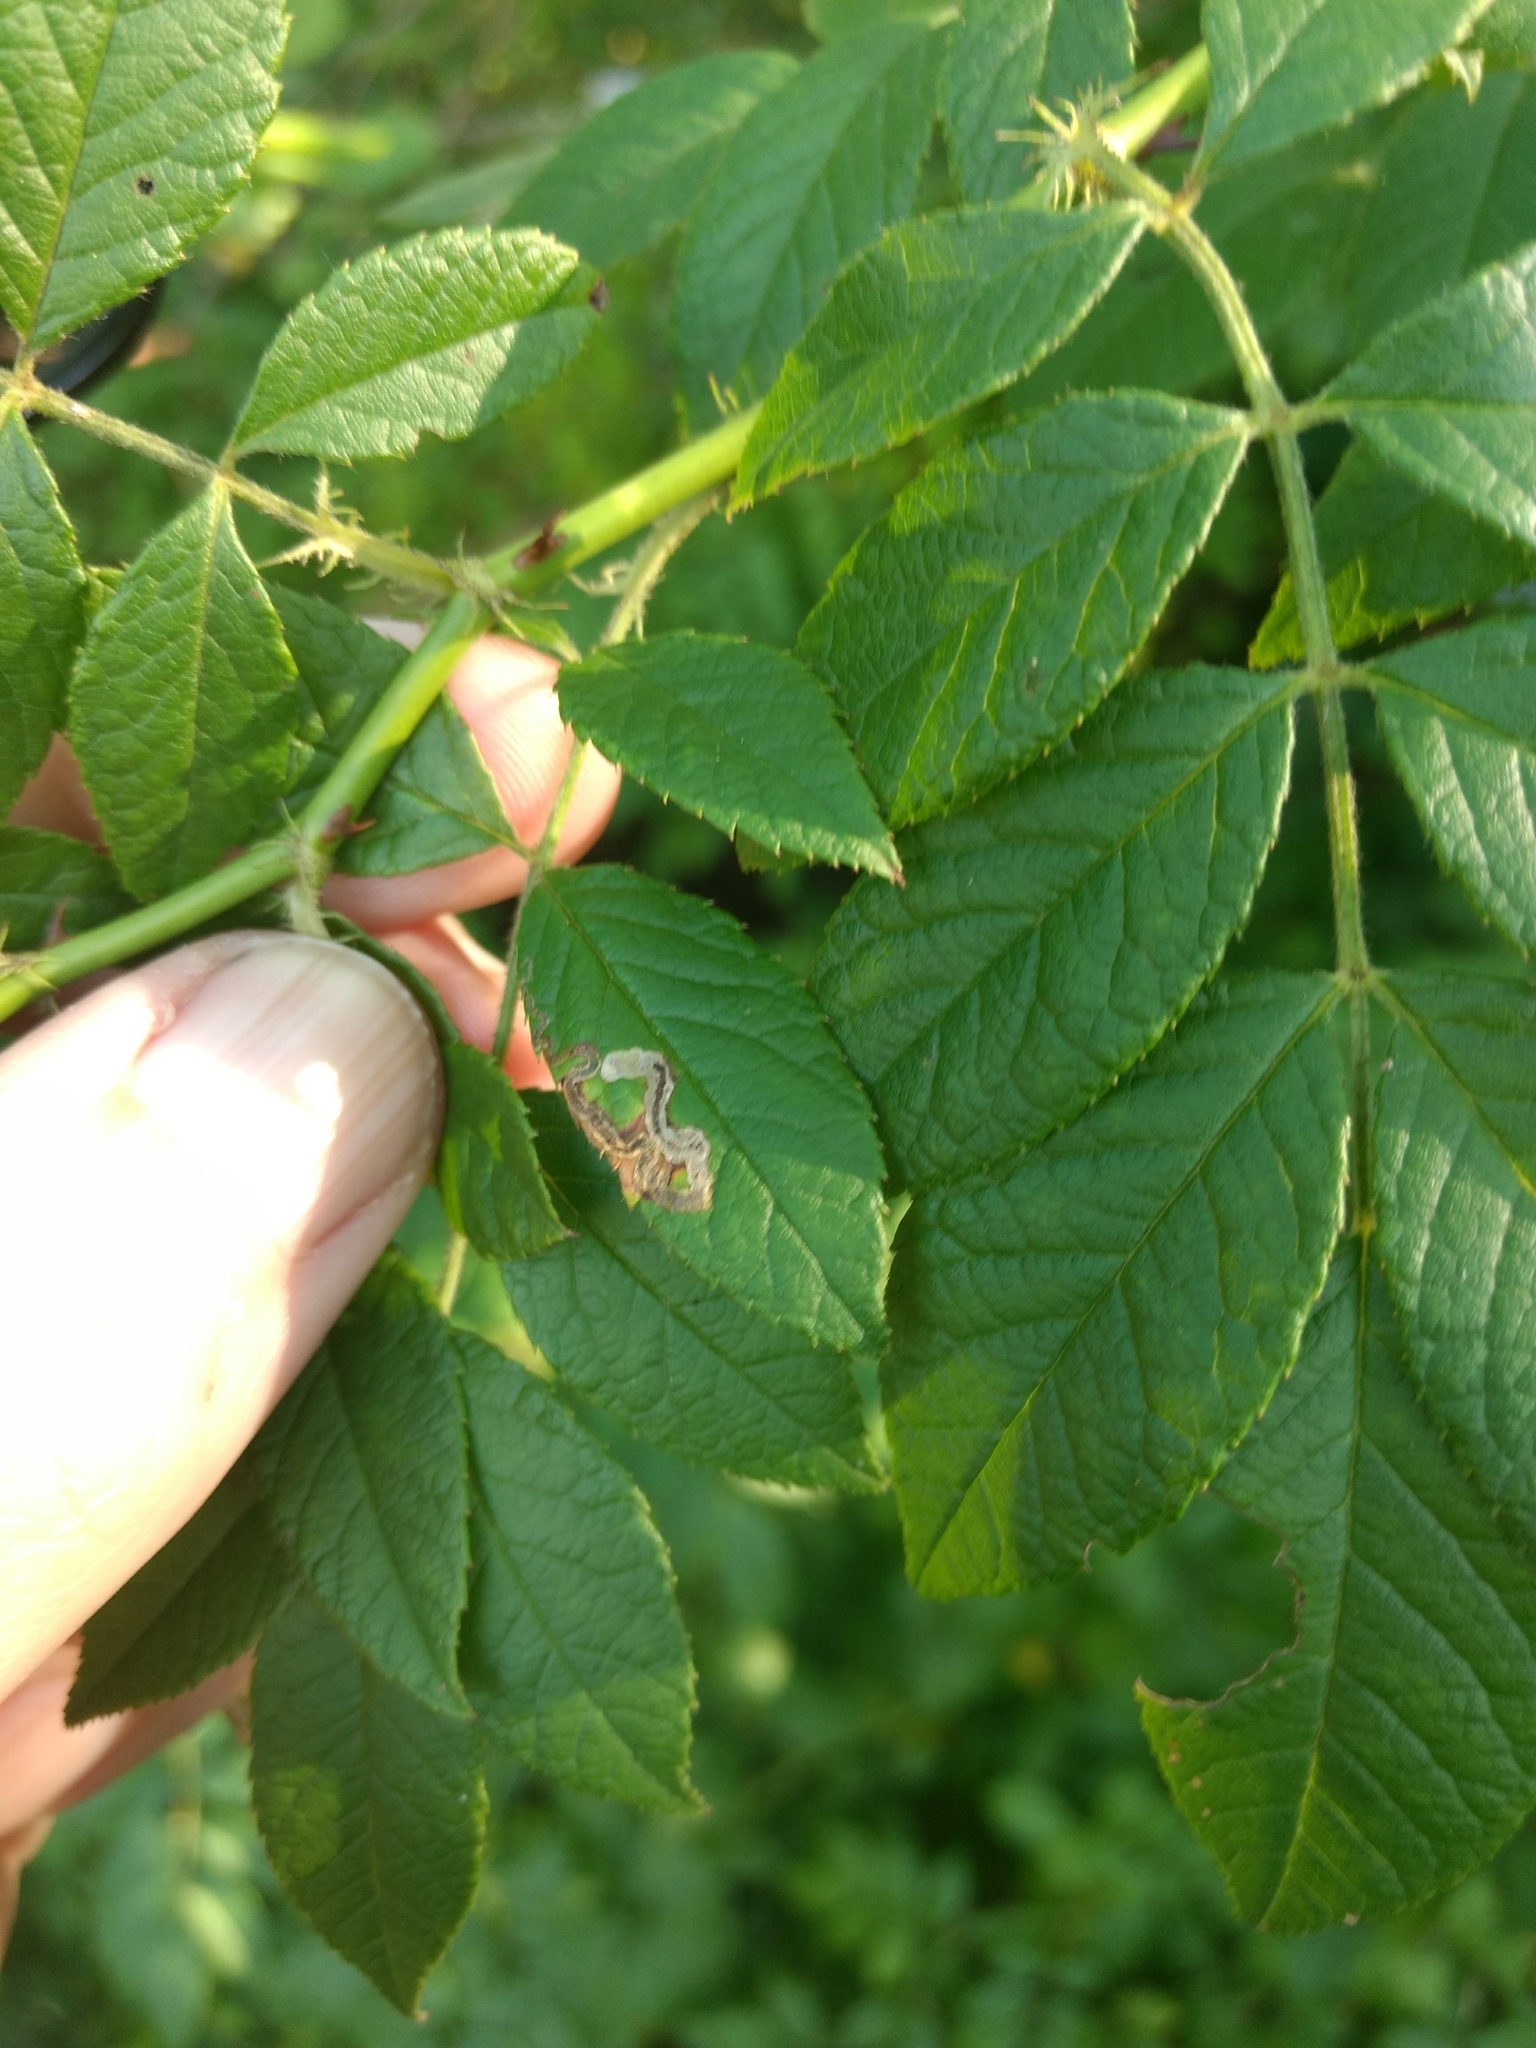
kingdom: Plantae
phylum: Tracheophyta
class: Magnoliopsida
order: Rosales
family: Rosaceae
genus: Rosa
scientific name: Rosa multiflora
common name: Multiflora rose
